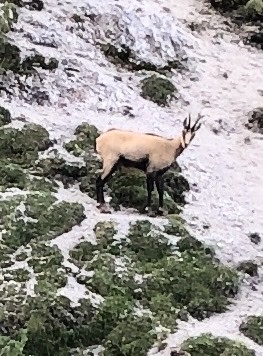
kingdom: Animalia
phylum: Chordata
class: Mammalia
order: Artiodactyla
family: Bovidae
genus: Rupicapra
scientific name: Rupicapra rupicapra
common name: Chamois
